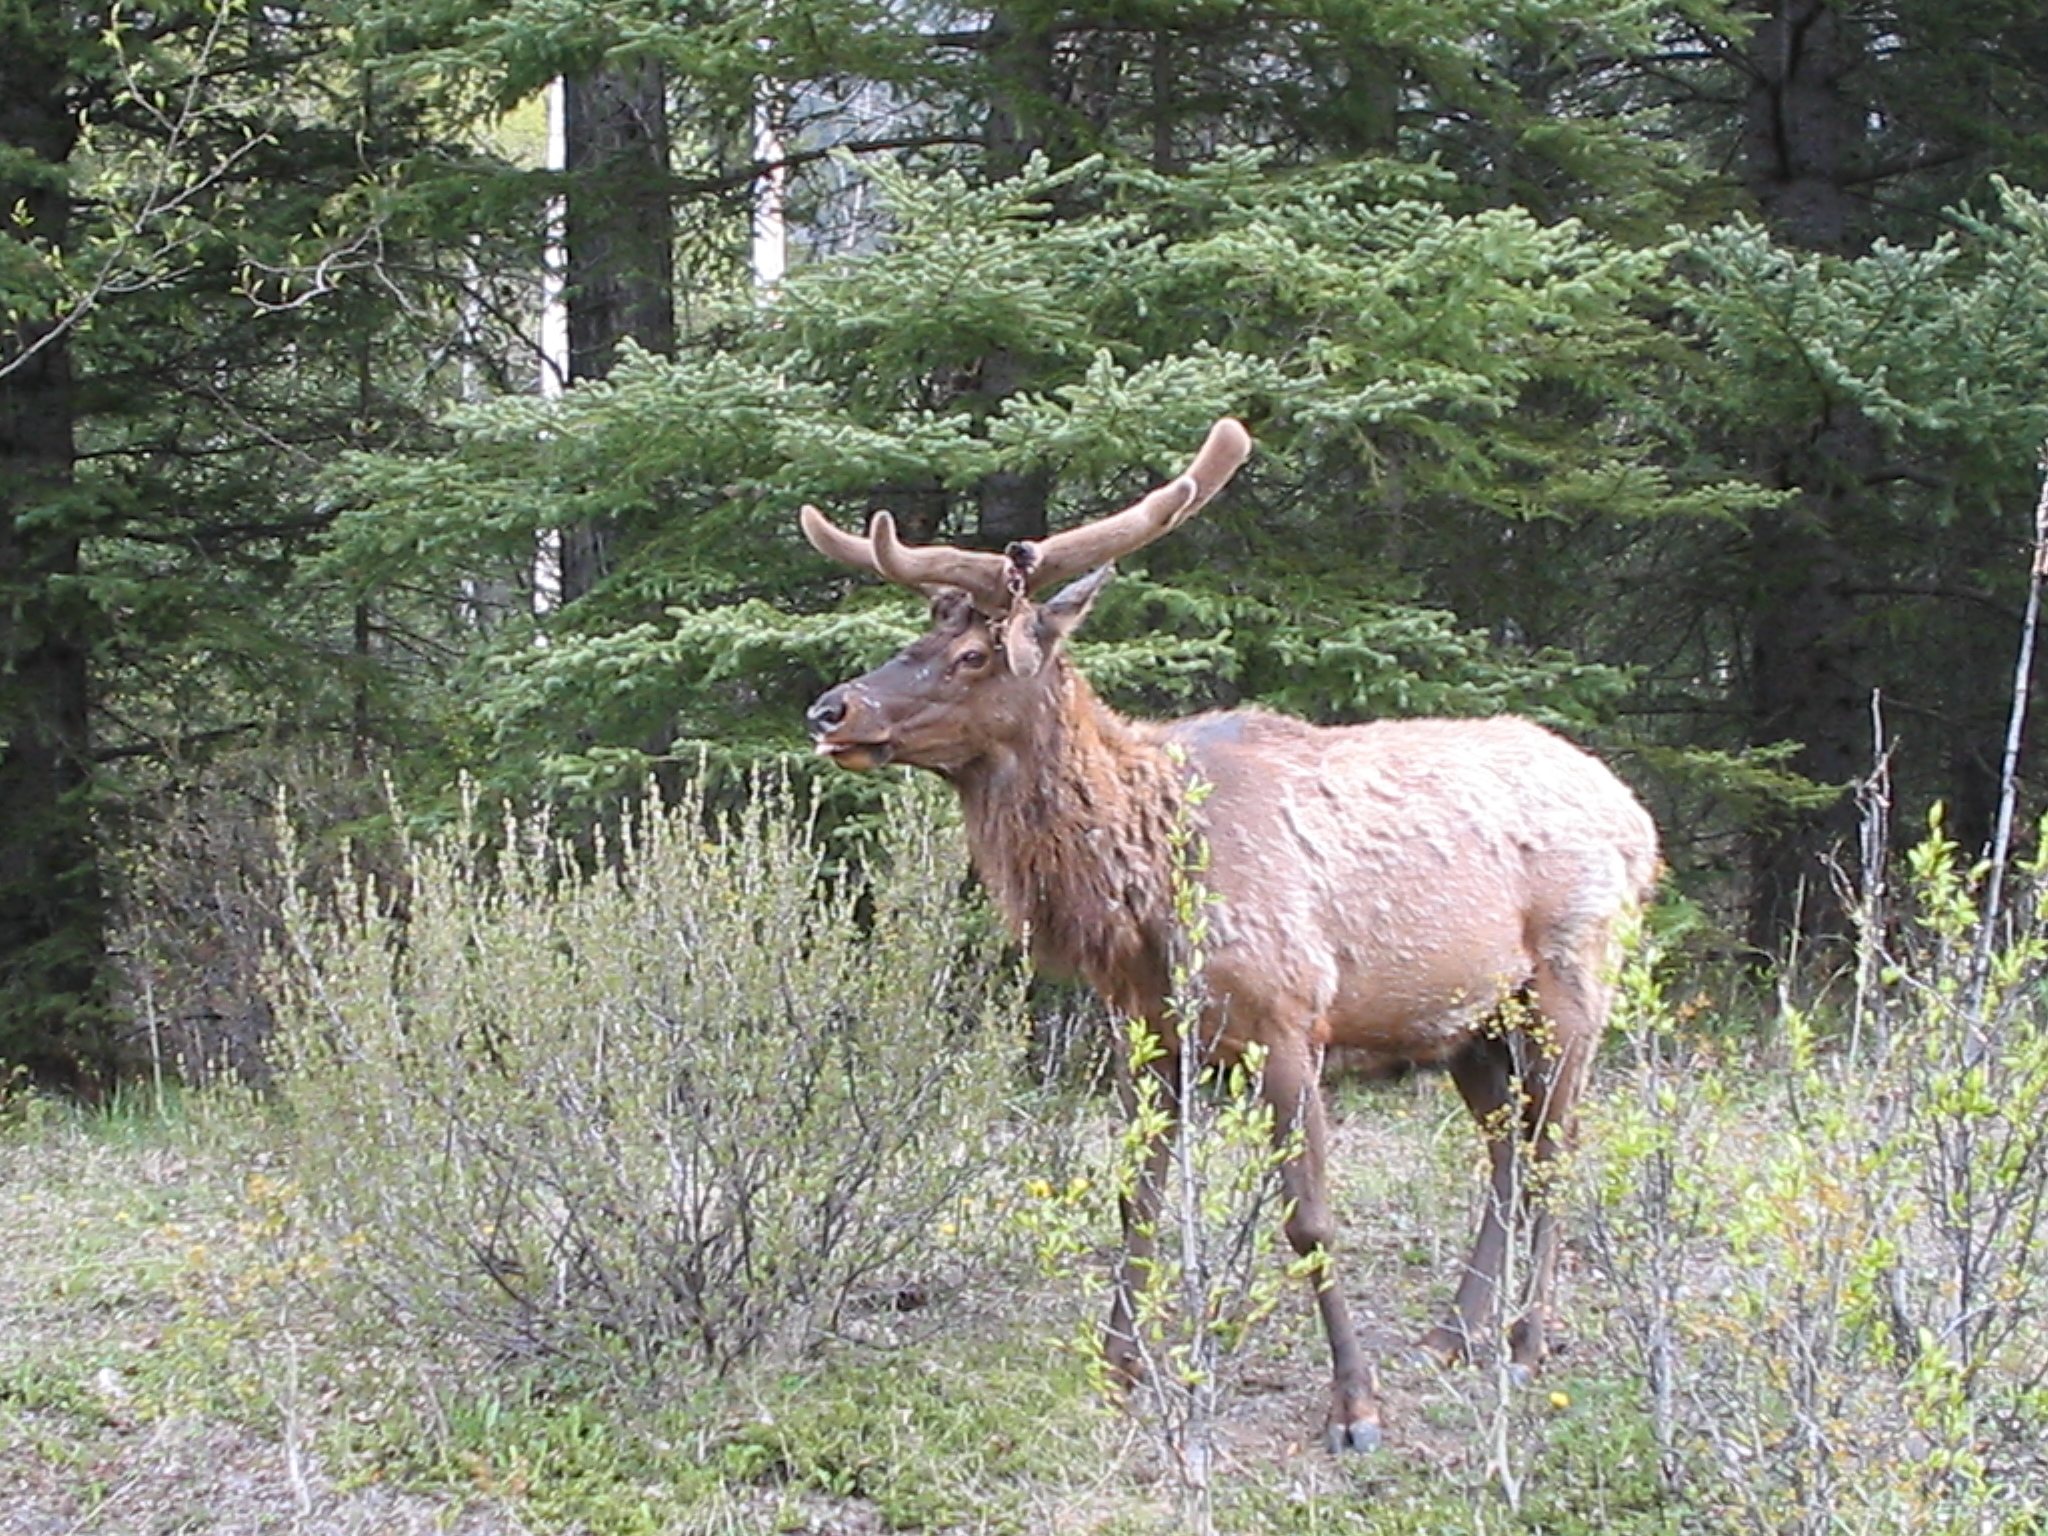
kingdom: Animalia
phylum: Chordata
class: Mammalia
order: Artiodactyla
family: Cervidae
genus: Cervus
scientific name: Cervus elaphus
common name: Red deer
